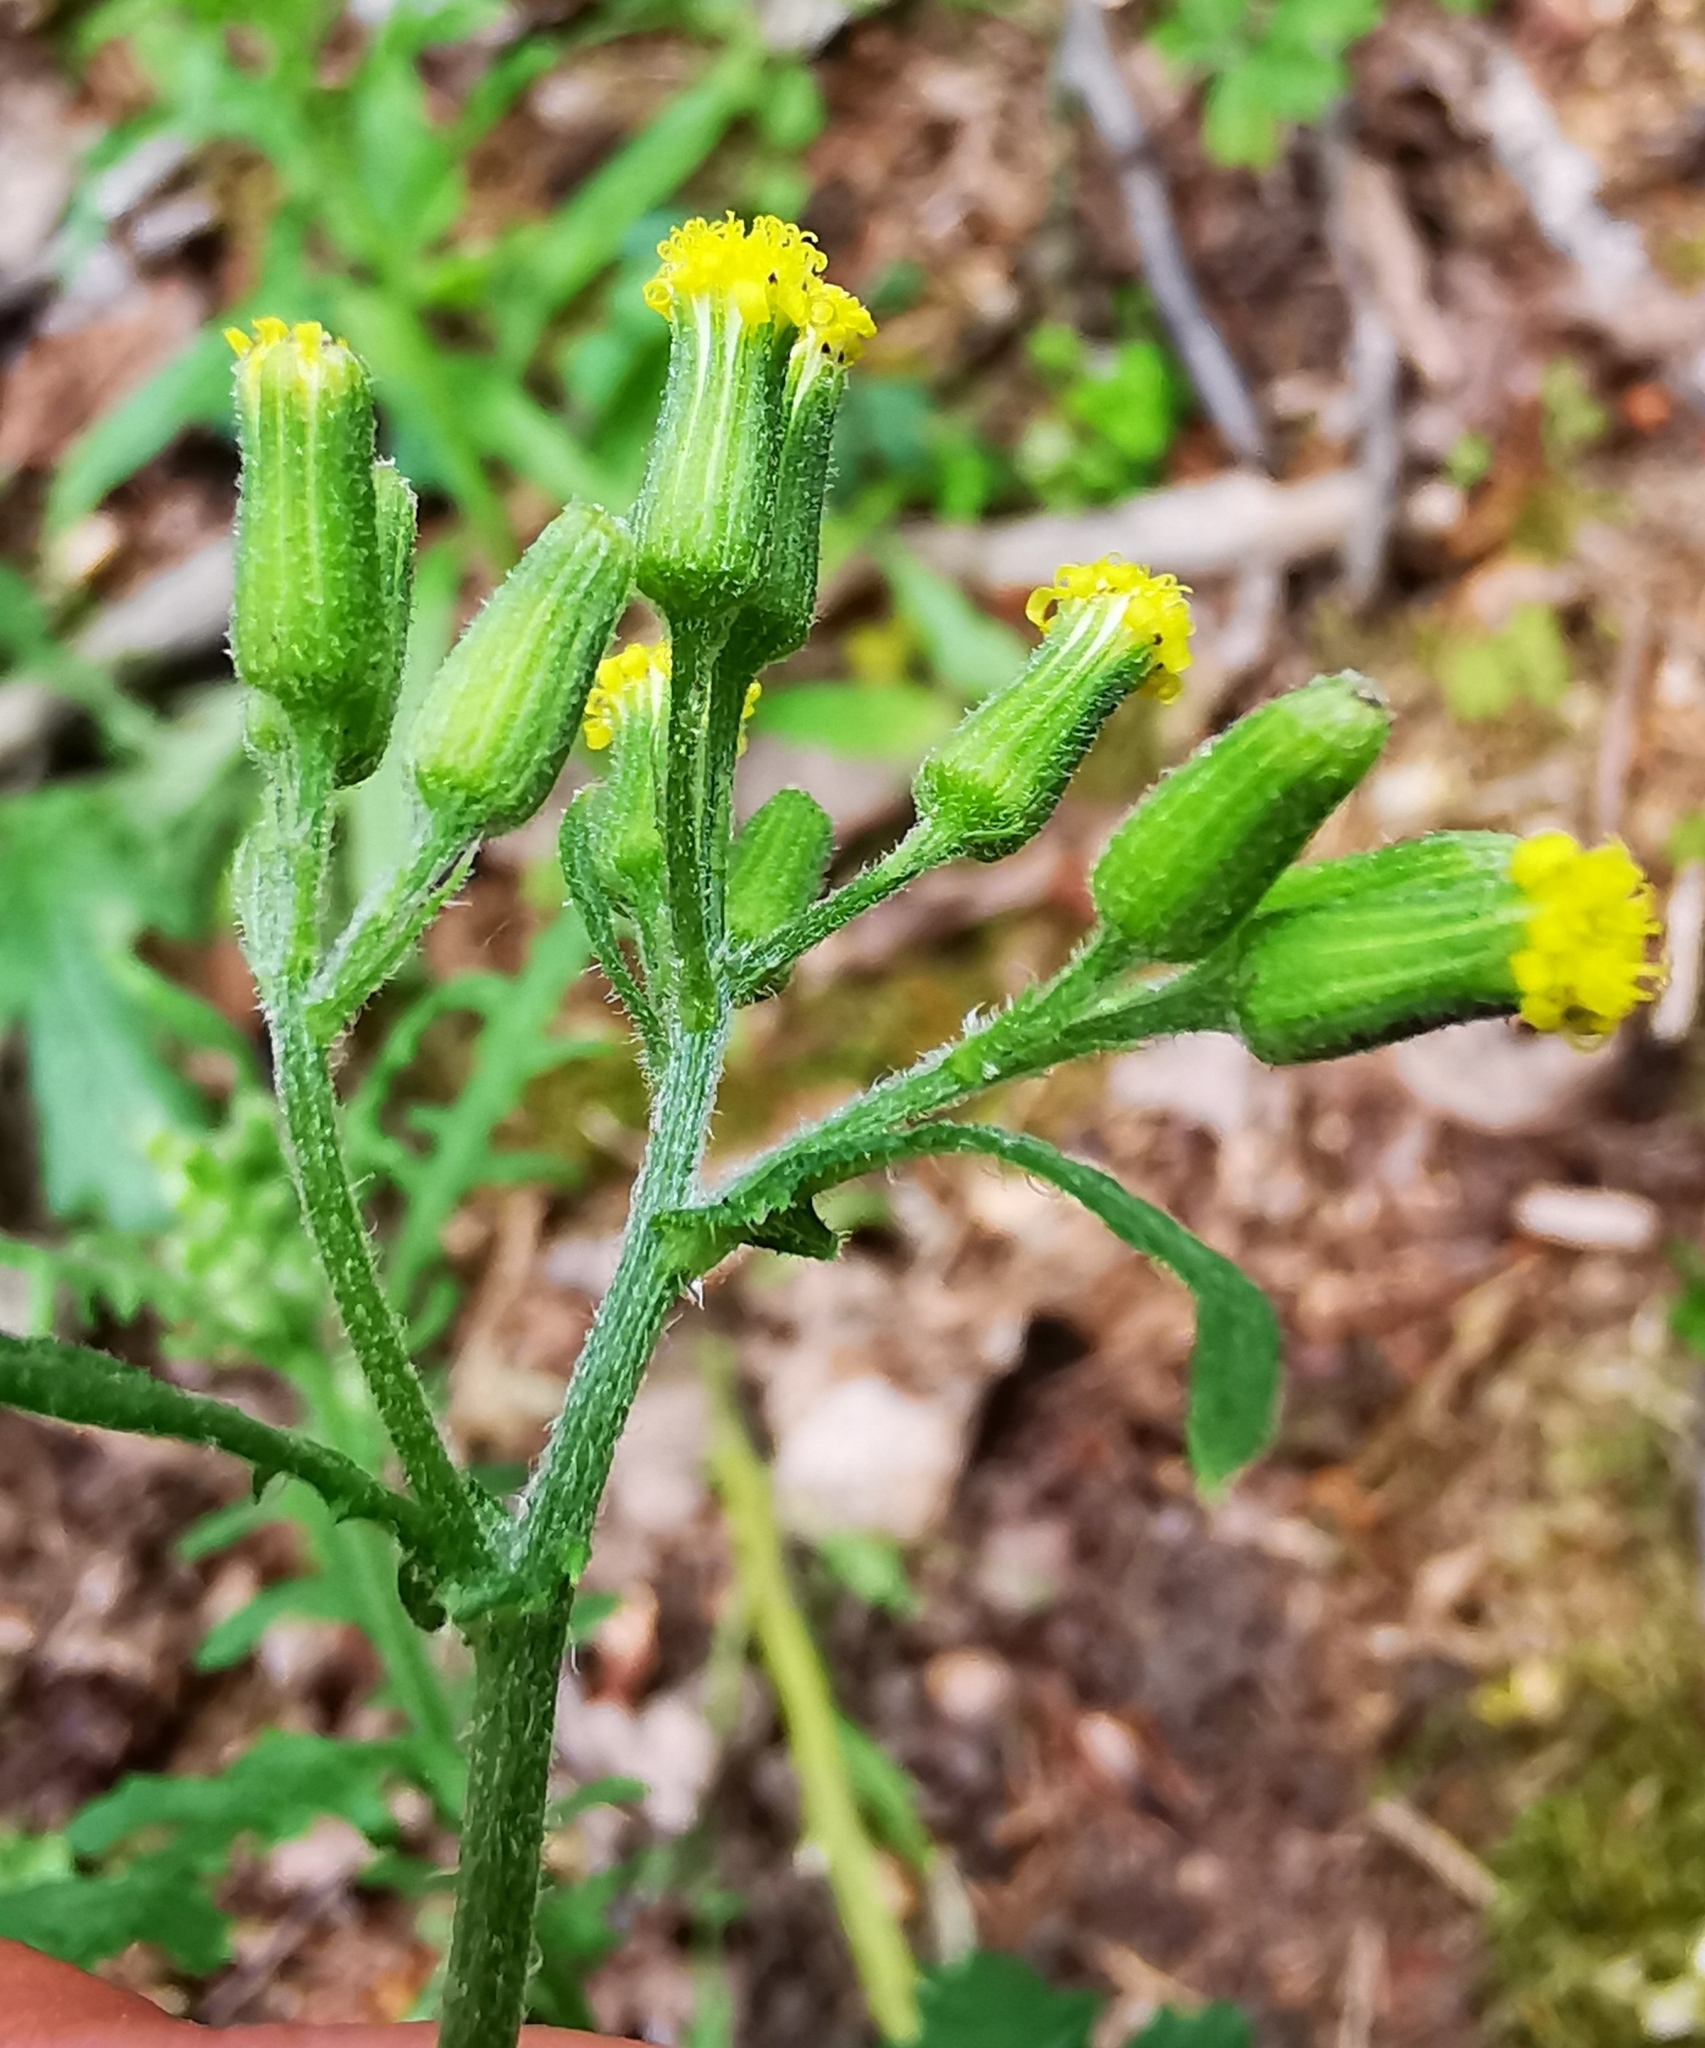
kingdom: Plantae
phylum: Tracheophyta
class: Magnoliopsida
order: Asterales
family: Asteraceae
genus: Senecio
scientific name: Senecio sylvaticus
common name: Woodland ragwort
